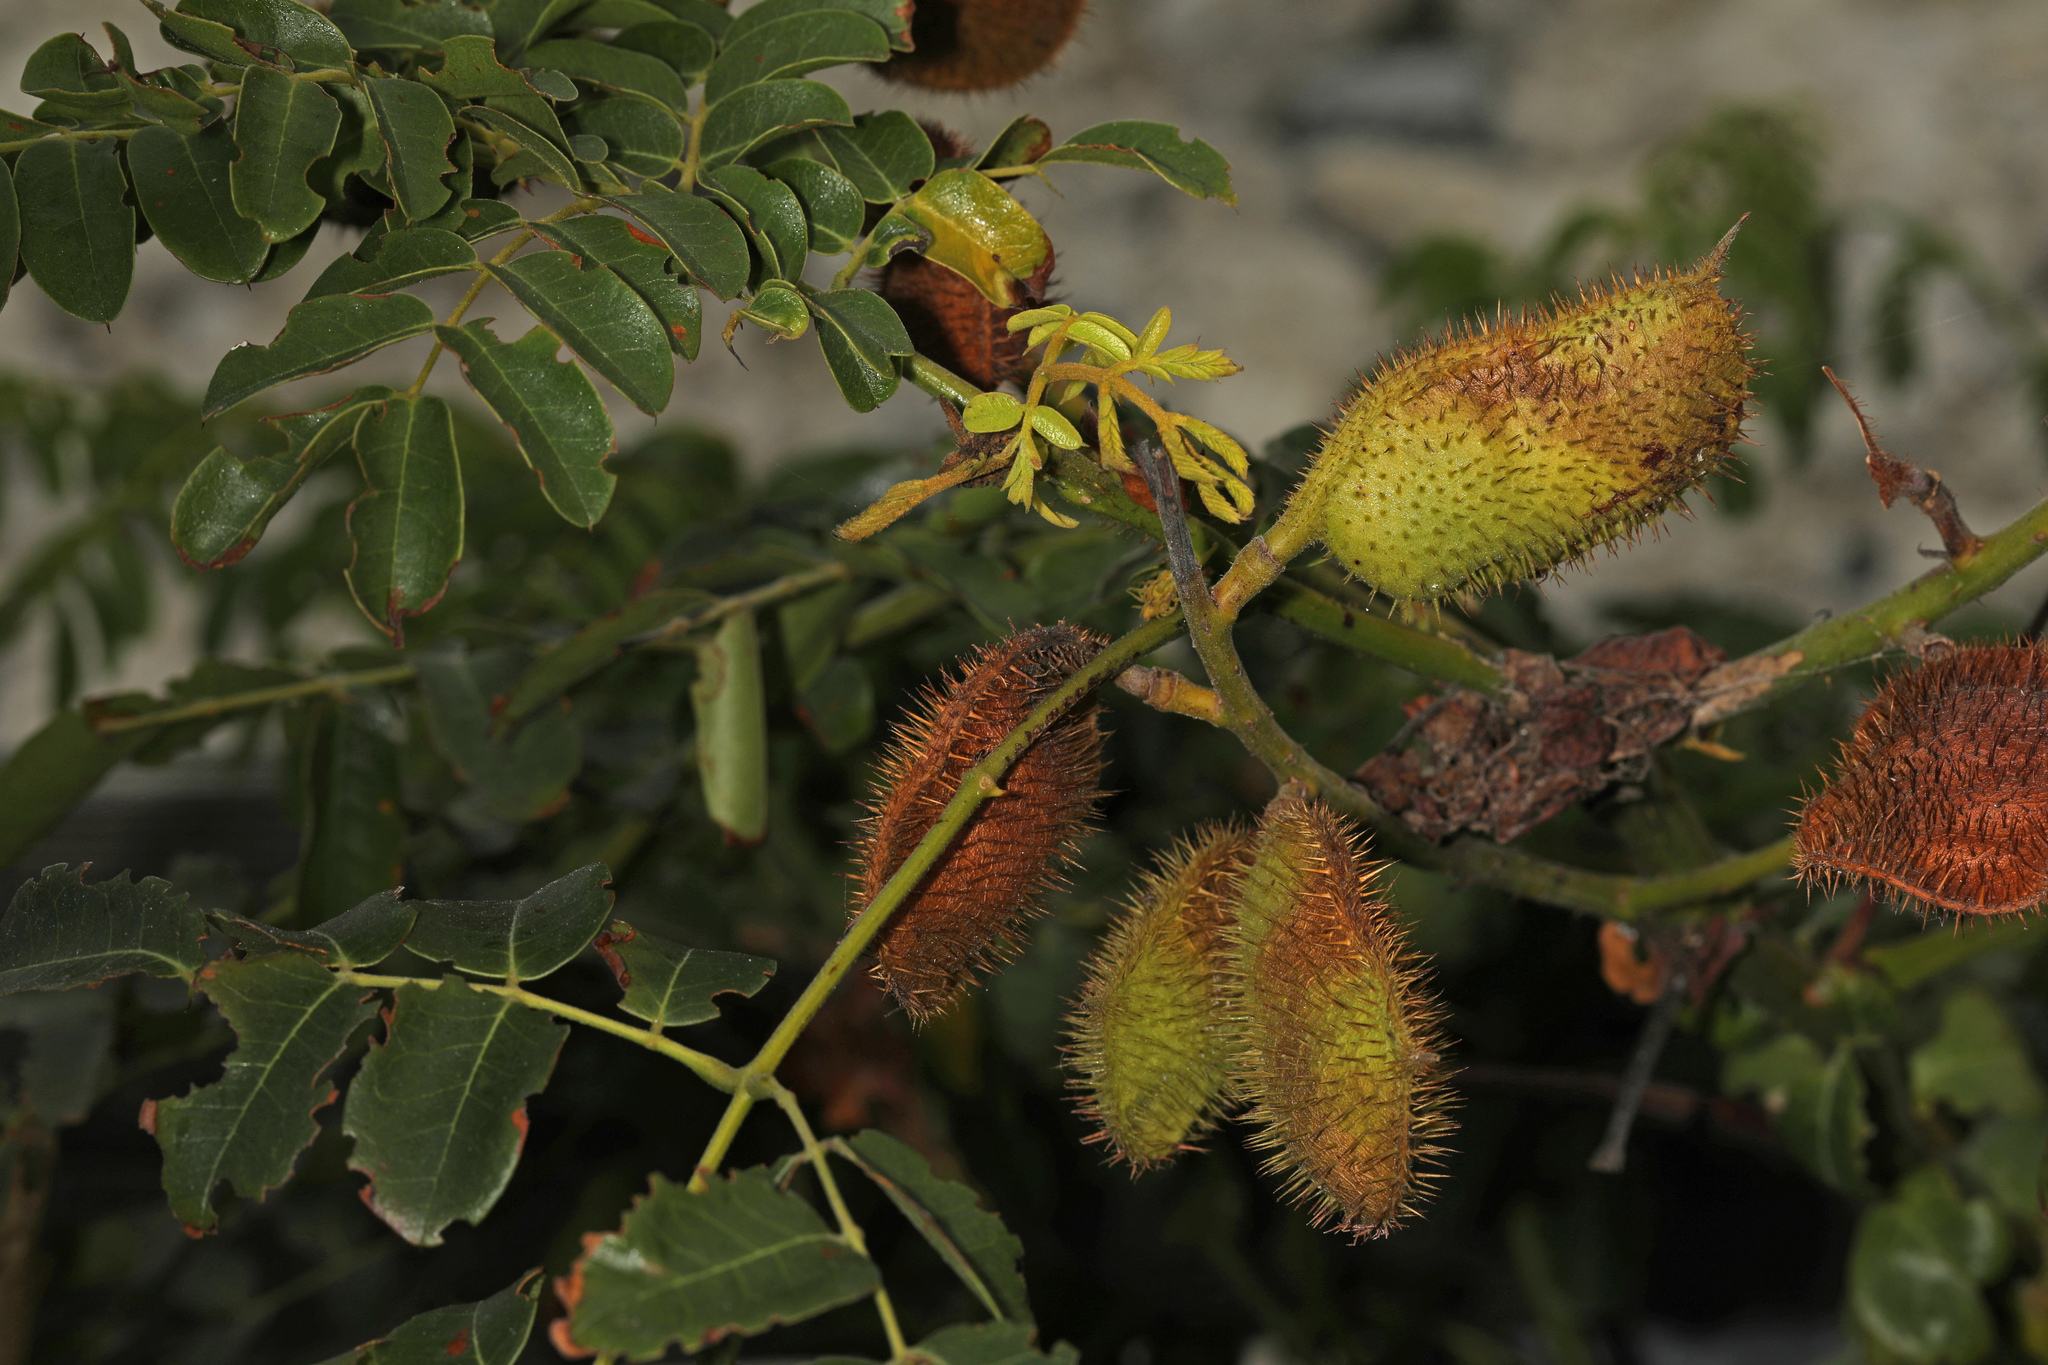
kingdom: Plantae
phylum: Tracheophyta
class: Magnoliopsida
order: Fabales
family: Fabaceae
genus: Guilandina
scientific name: Guilandina bonduc
